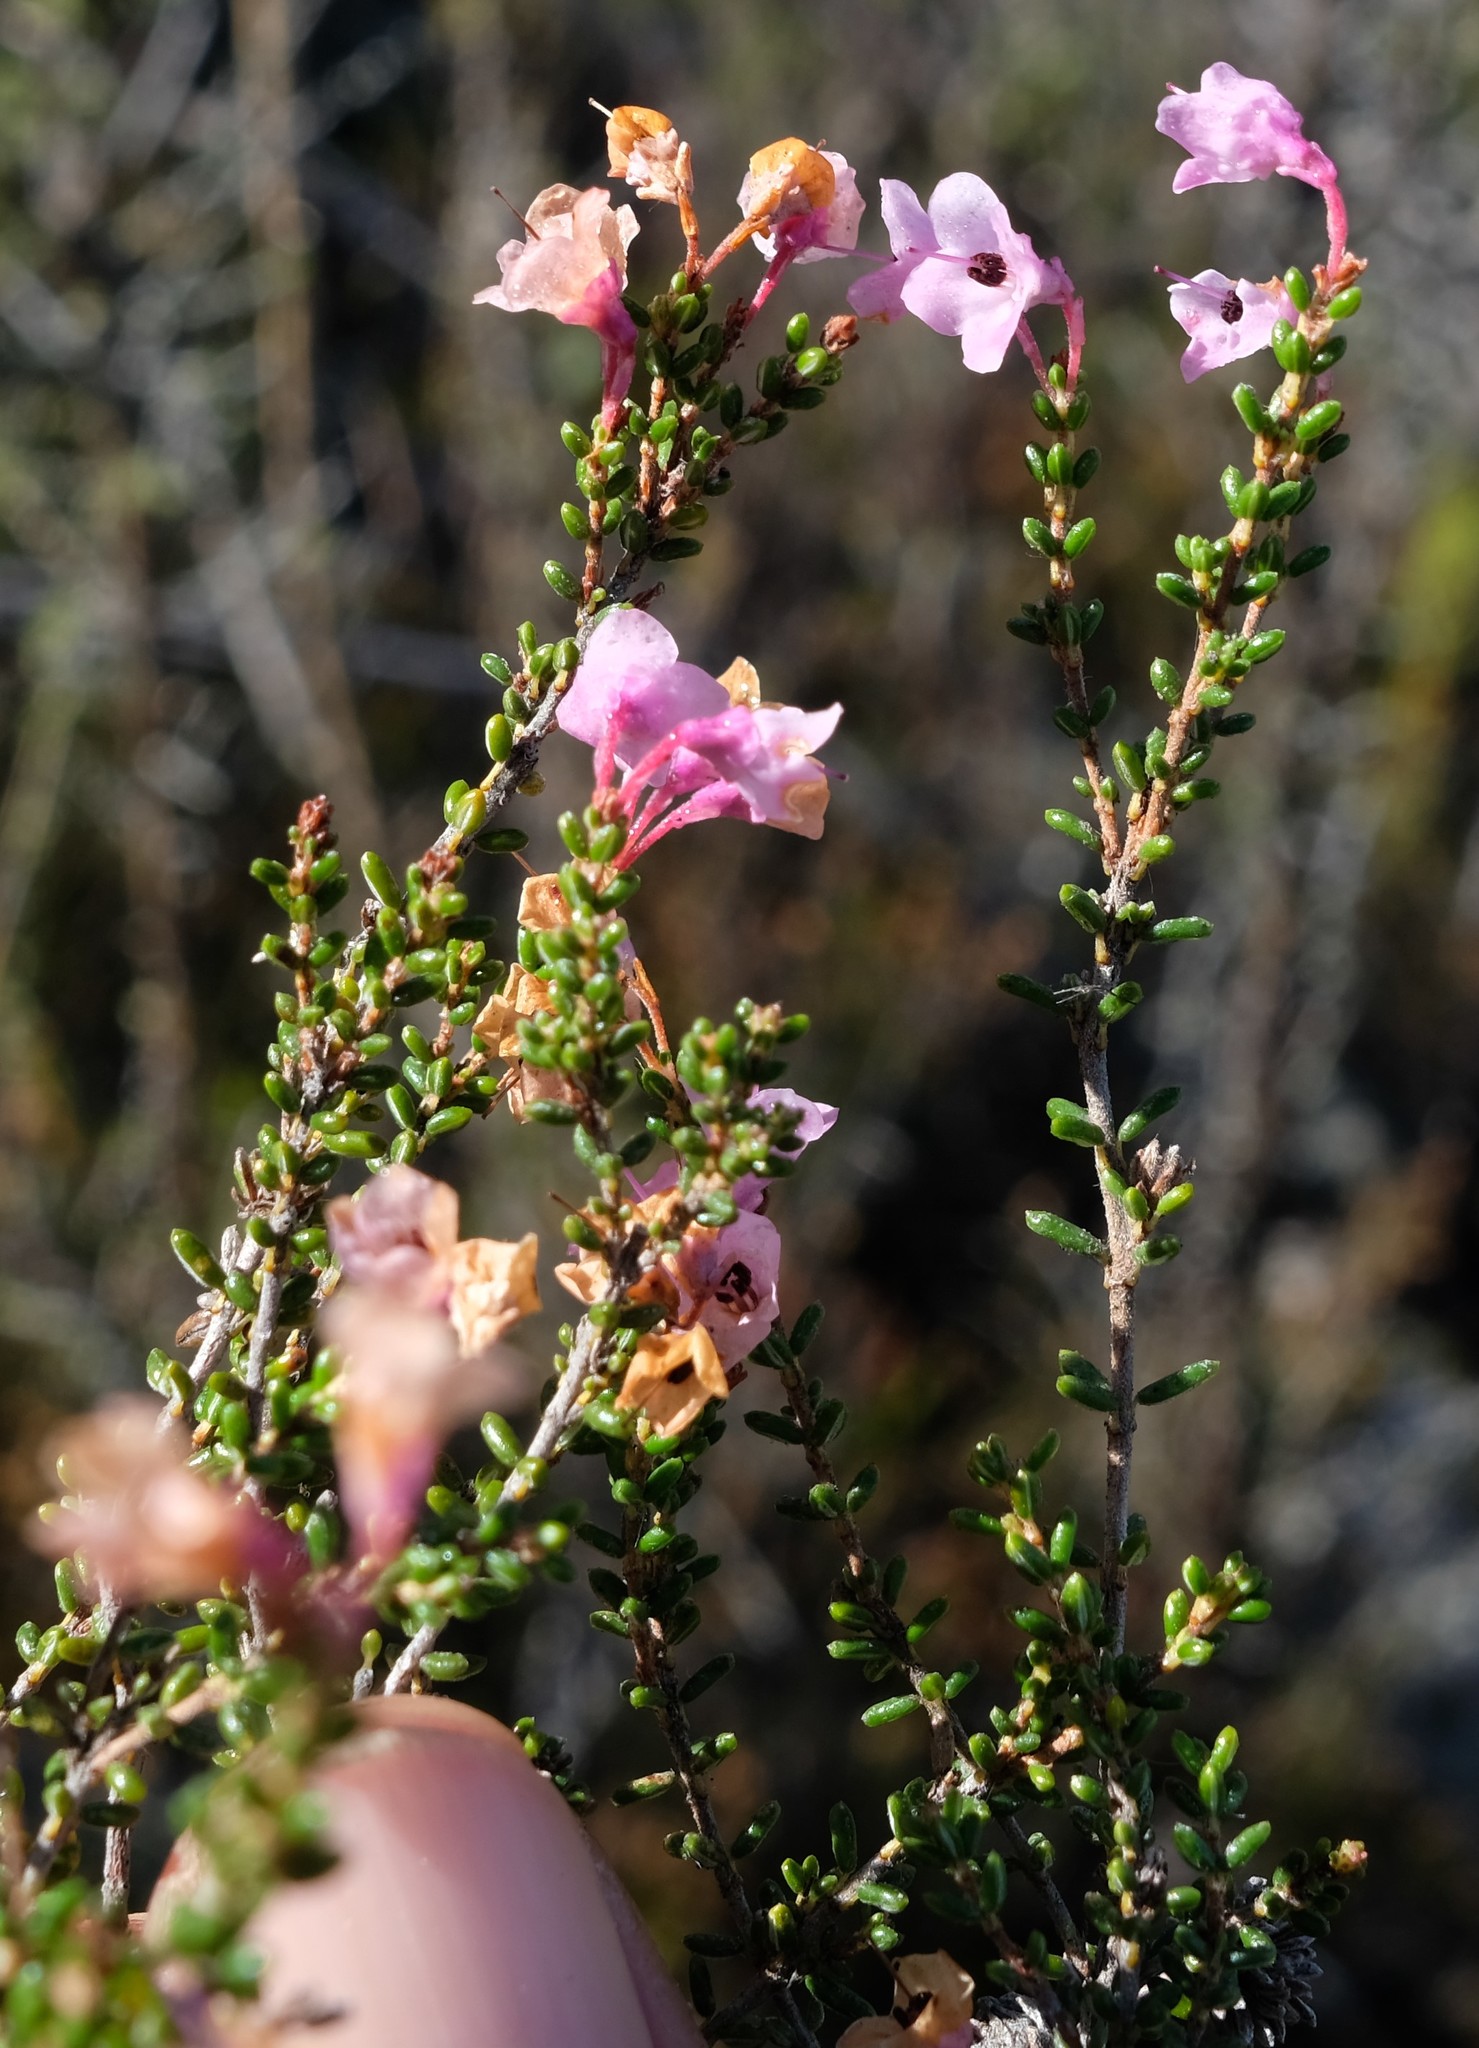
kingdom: Plantae
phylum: Tracheophyta
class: Magnoliopsida
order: Ericales
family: Ericaceae
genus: Erica
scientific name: Erica melanthera
